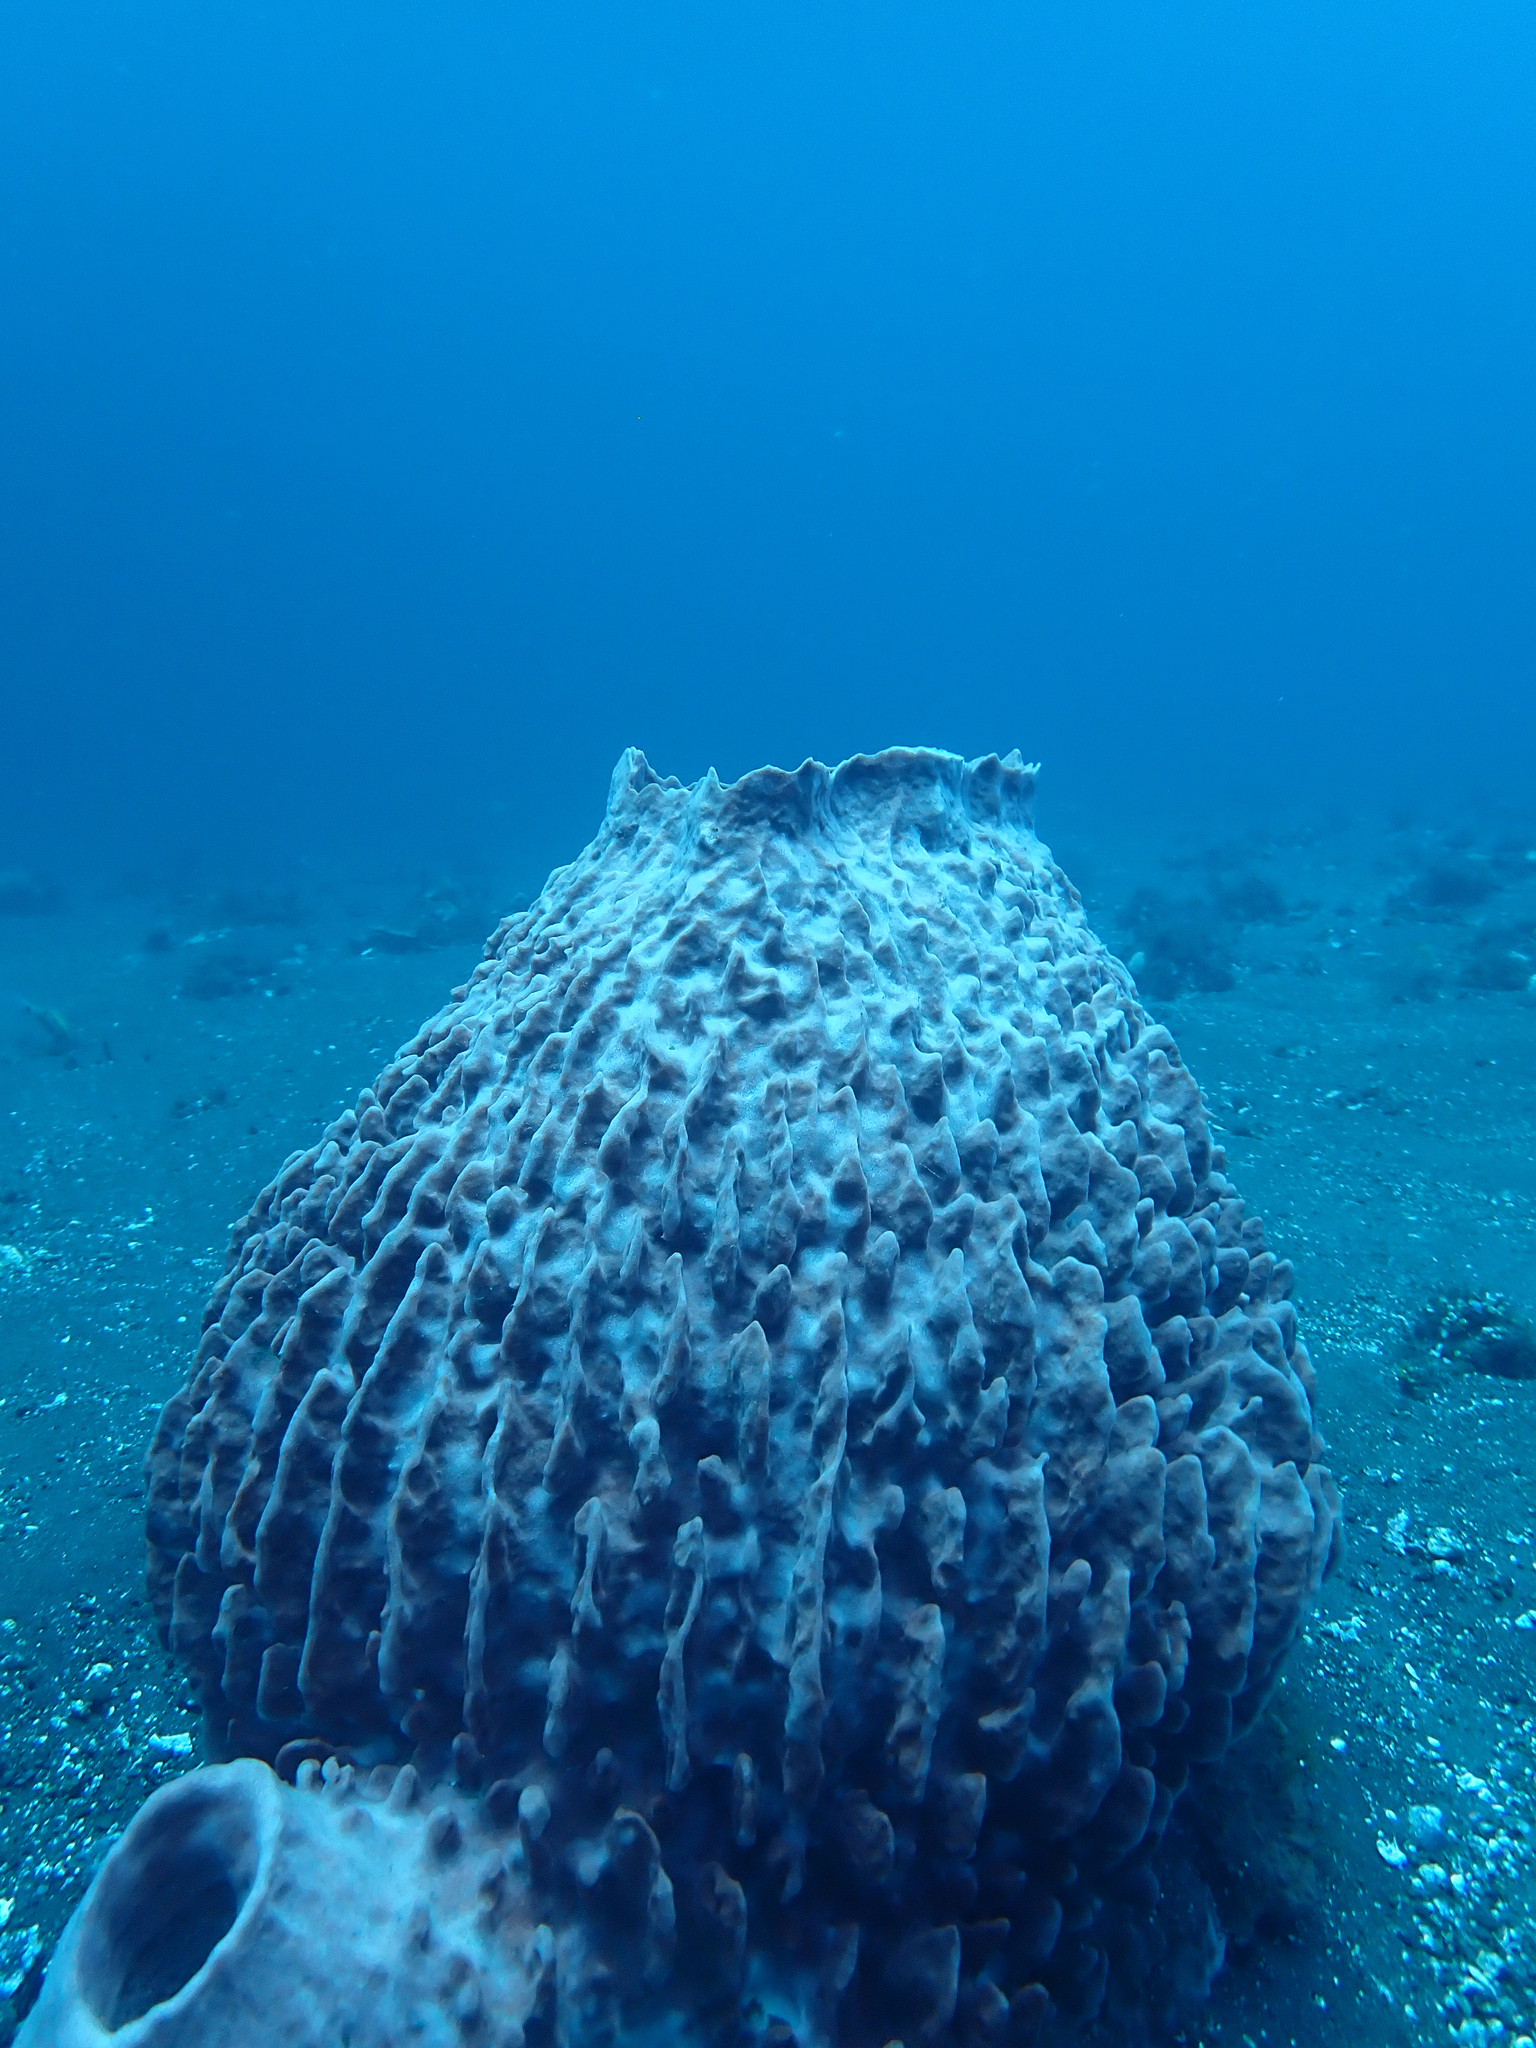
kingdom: Animalia
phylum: Porifera
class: Demospongiae
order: Haplosclerida
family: Petrosiidae
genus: Xestospongia
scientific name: Xestospongia testudinaria
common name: Barrel sponge
